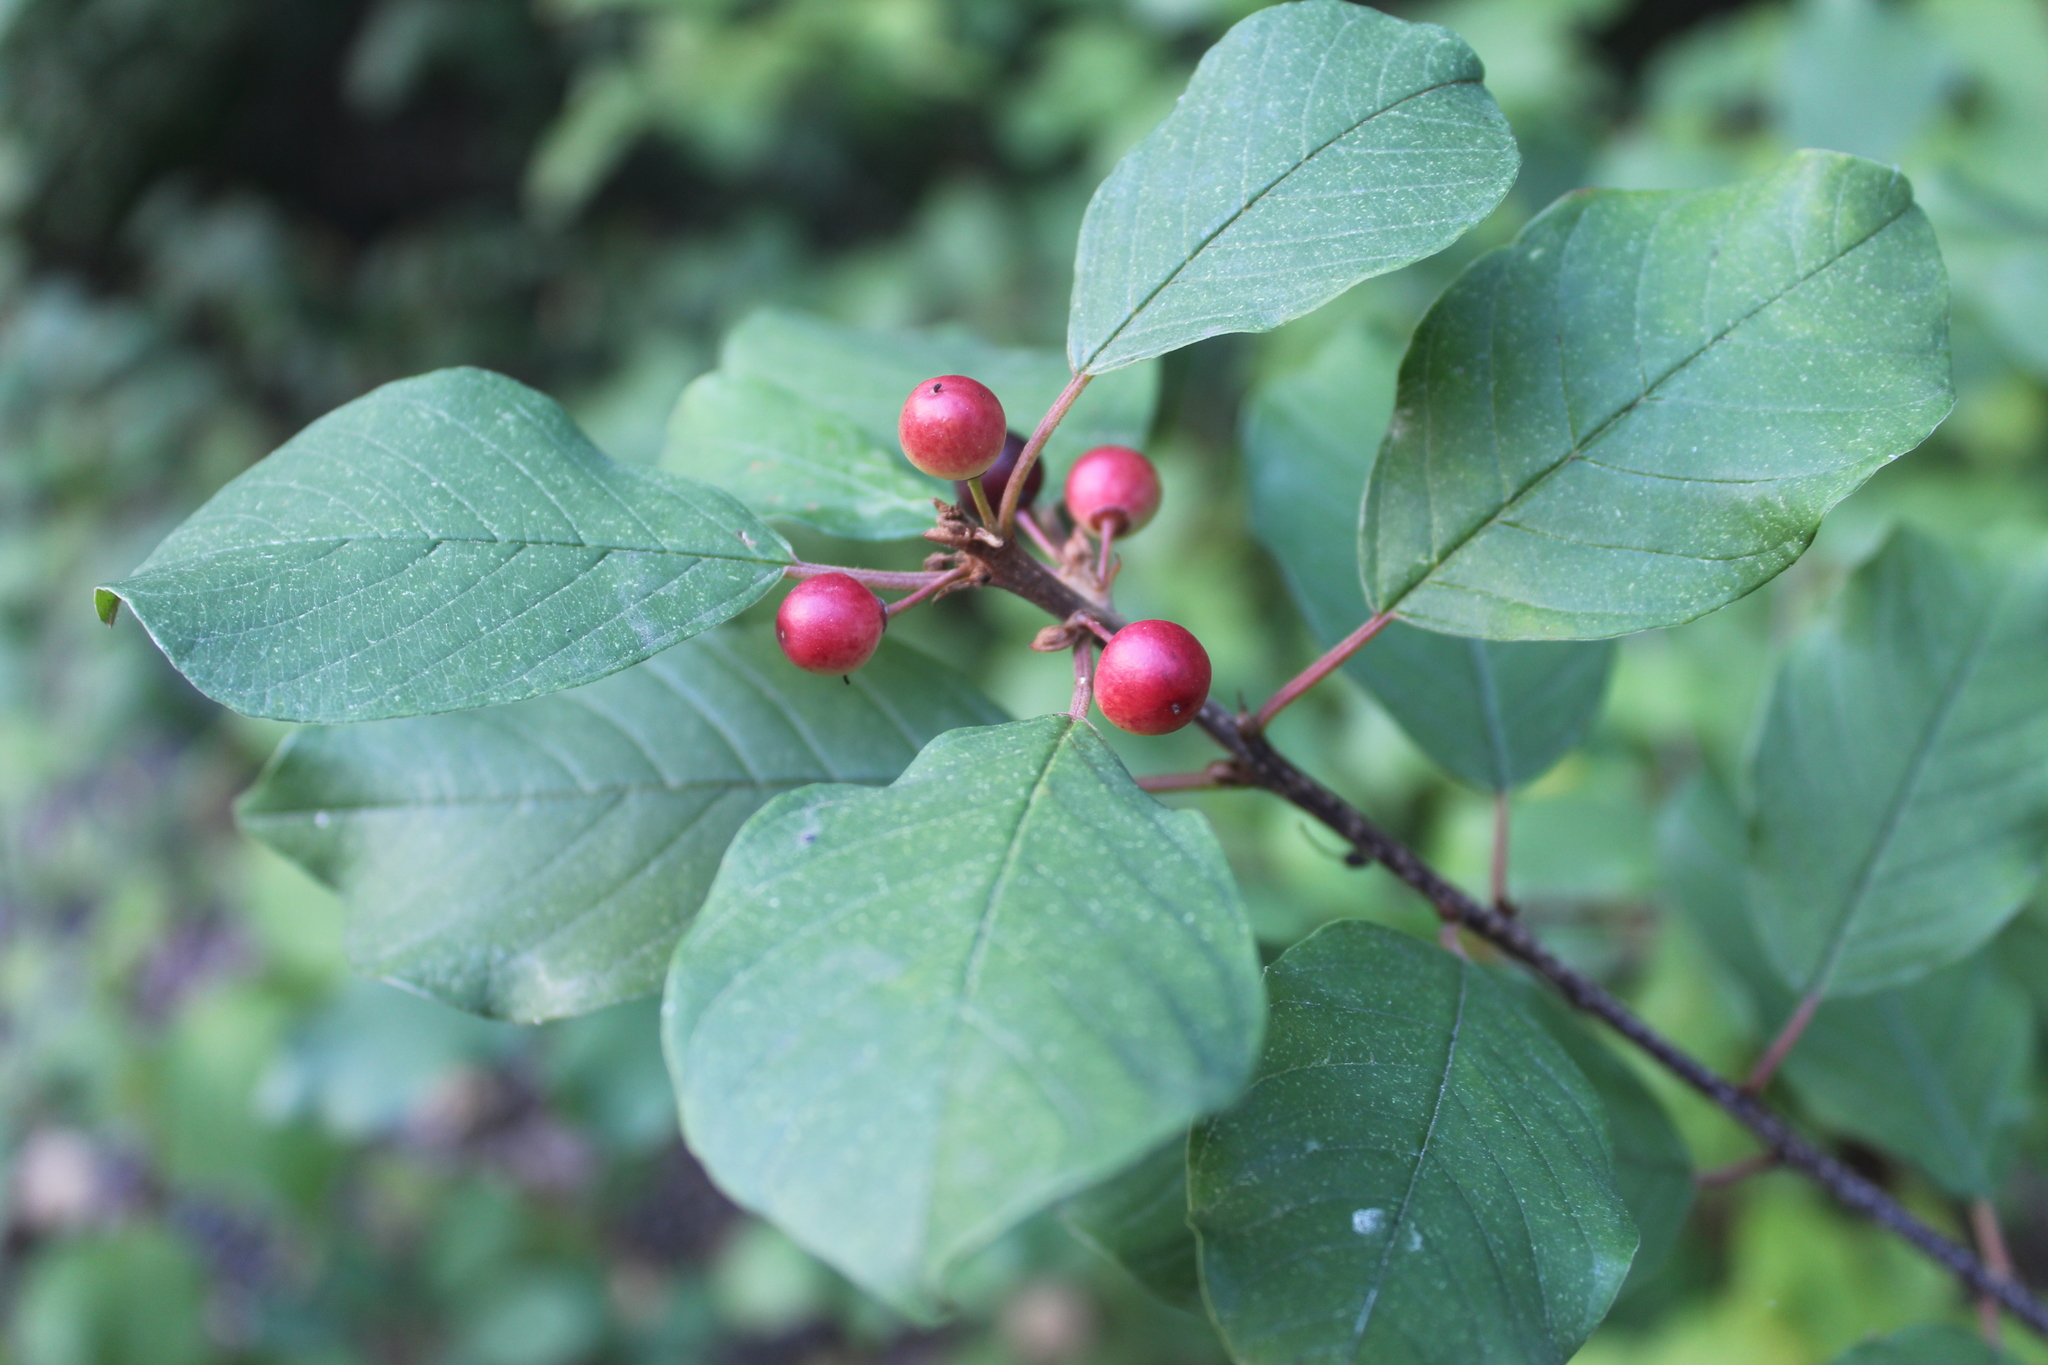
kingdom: Plantae
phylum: Tracheophyta
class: Magnoliopsida
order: Rosales
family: Rhamnaceae
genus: Frangula
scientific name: Frangula alnus
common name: Alder buckthorn
